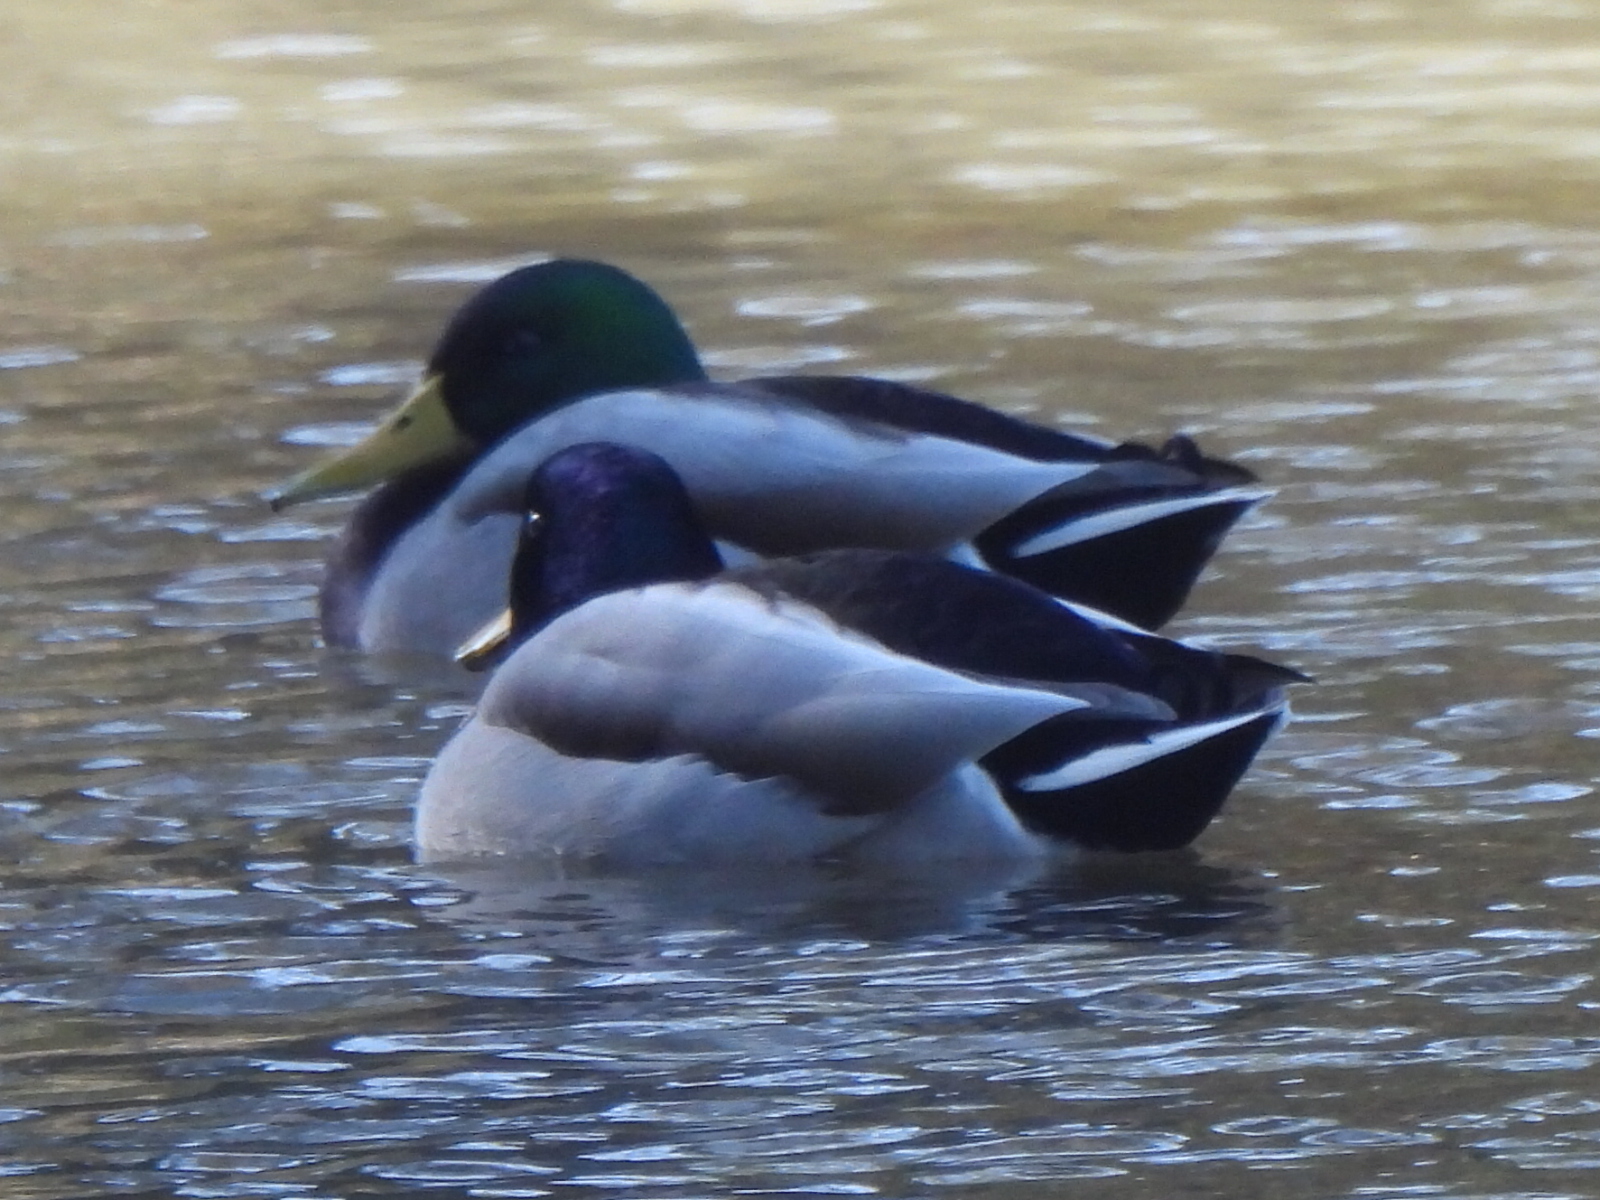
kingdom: Animalia
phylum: Chordata
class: Aves
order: Anseriformes
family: Anatidae
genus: Anas
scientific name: Anas platyrhynchos
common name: Mallard
